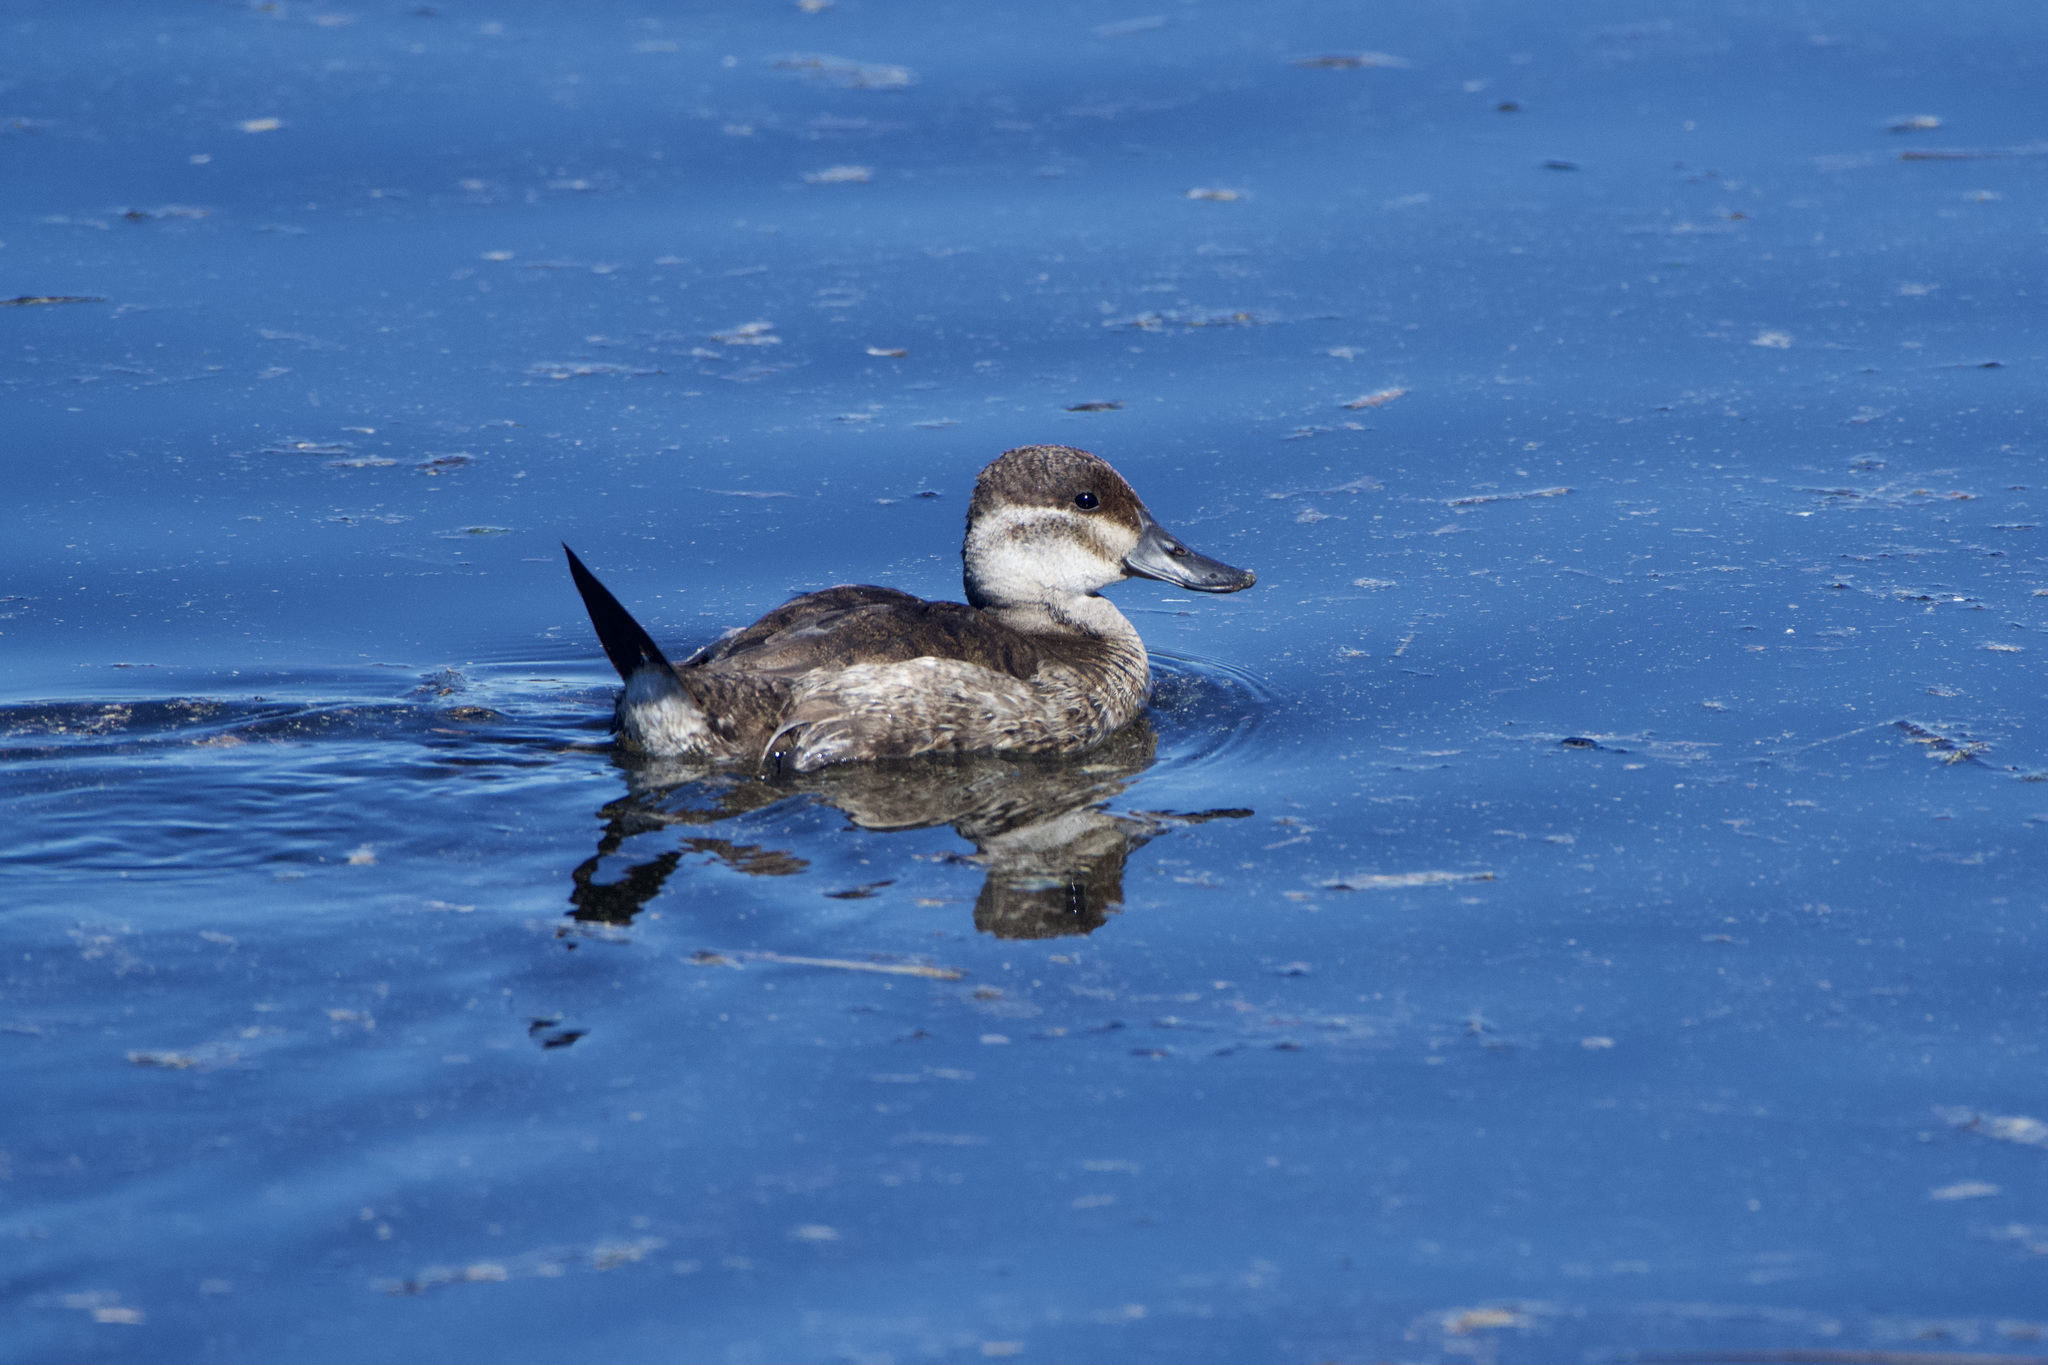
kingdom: Animalia
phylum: Chordata
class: Aves
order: Anseriformes
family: Anatidae
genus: Oxyura
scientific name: Oxyura jamaicensis
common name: Ruddy duck
